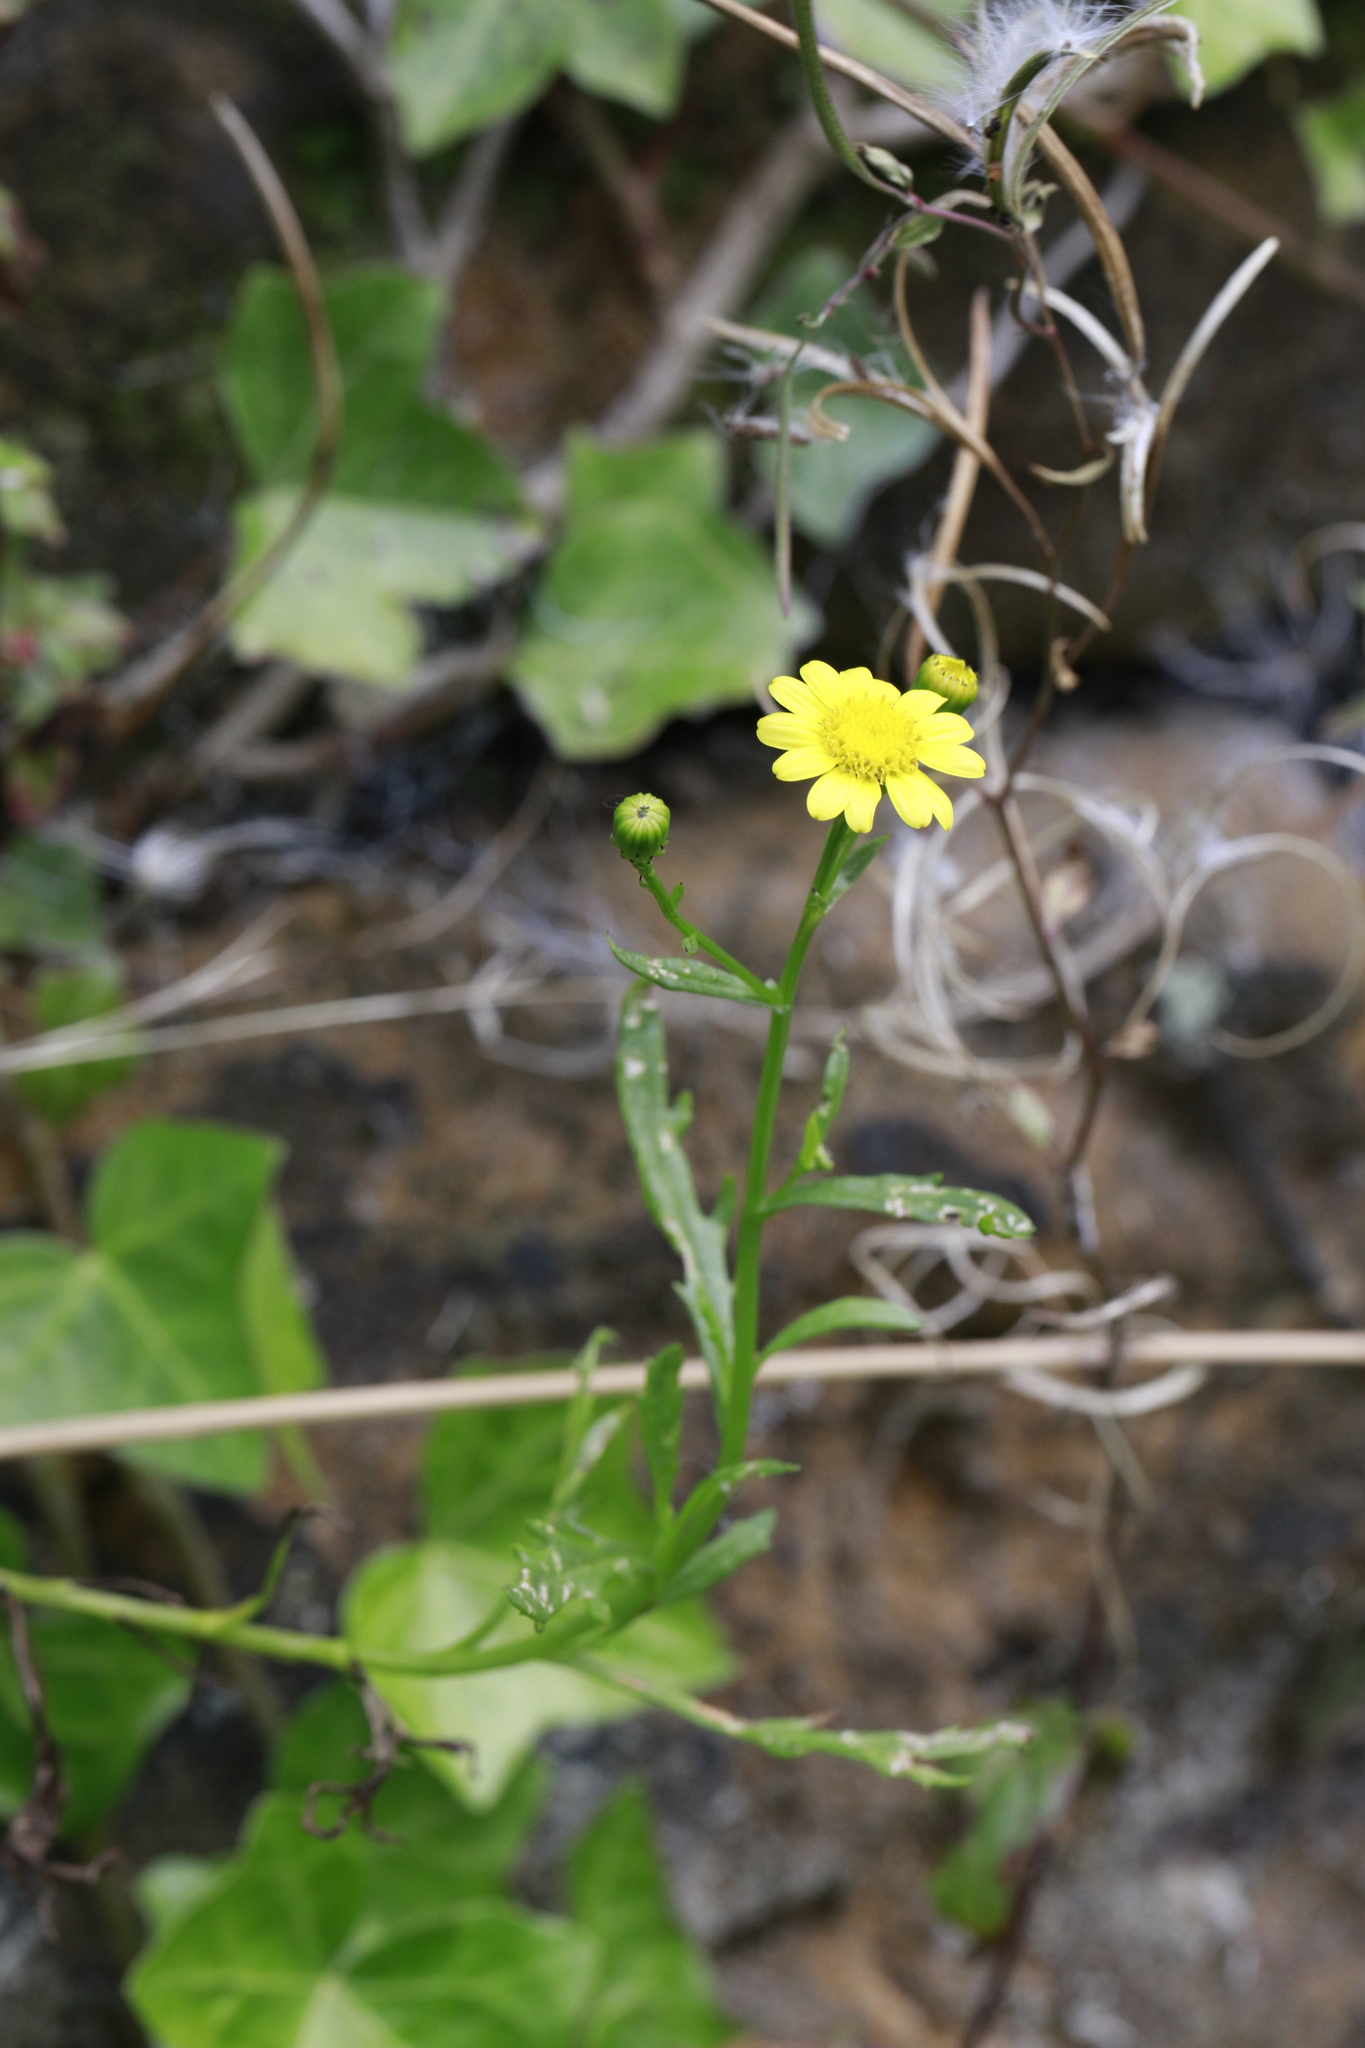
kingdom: Plantae
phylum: Tracheophyta
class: Magnoliopsida
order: Asterales
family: Asteraceae
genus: Senecio
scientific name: Senecio squalidus
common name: Oxford ragwort
